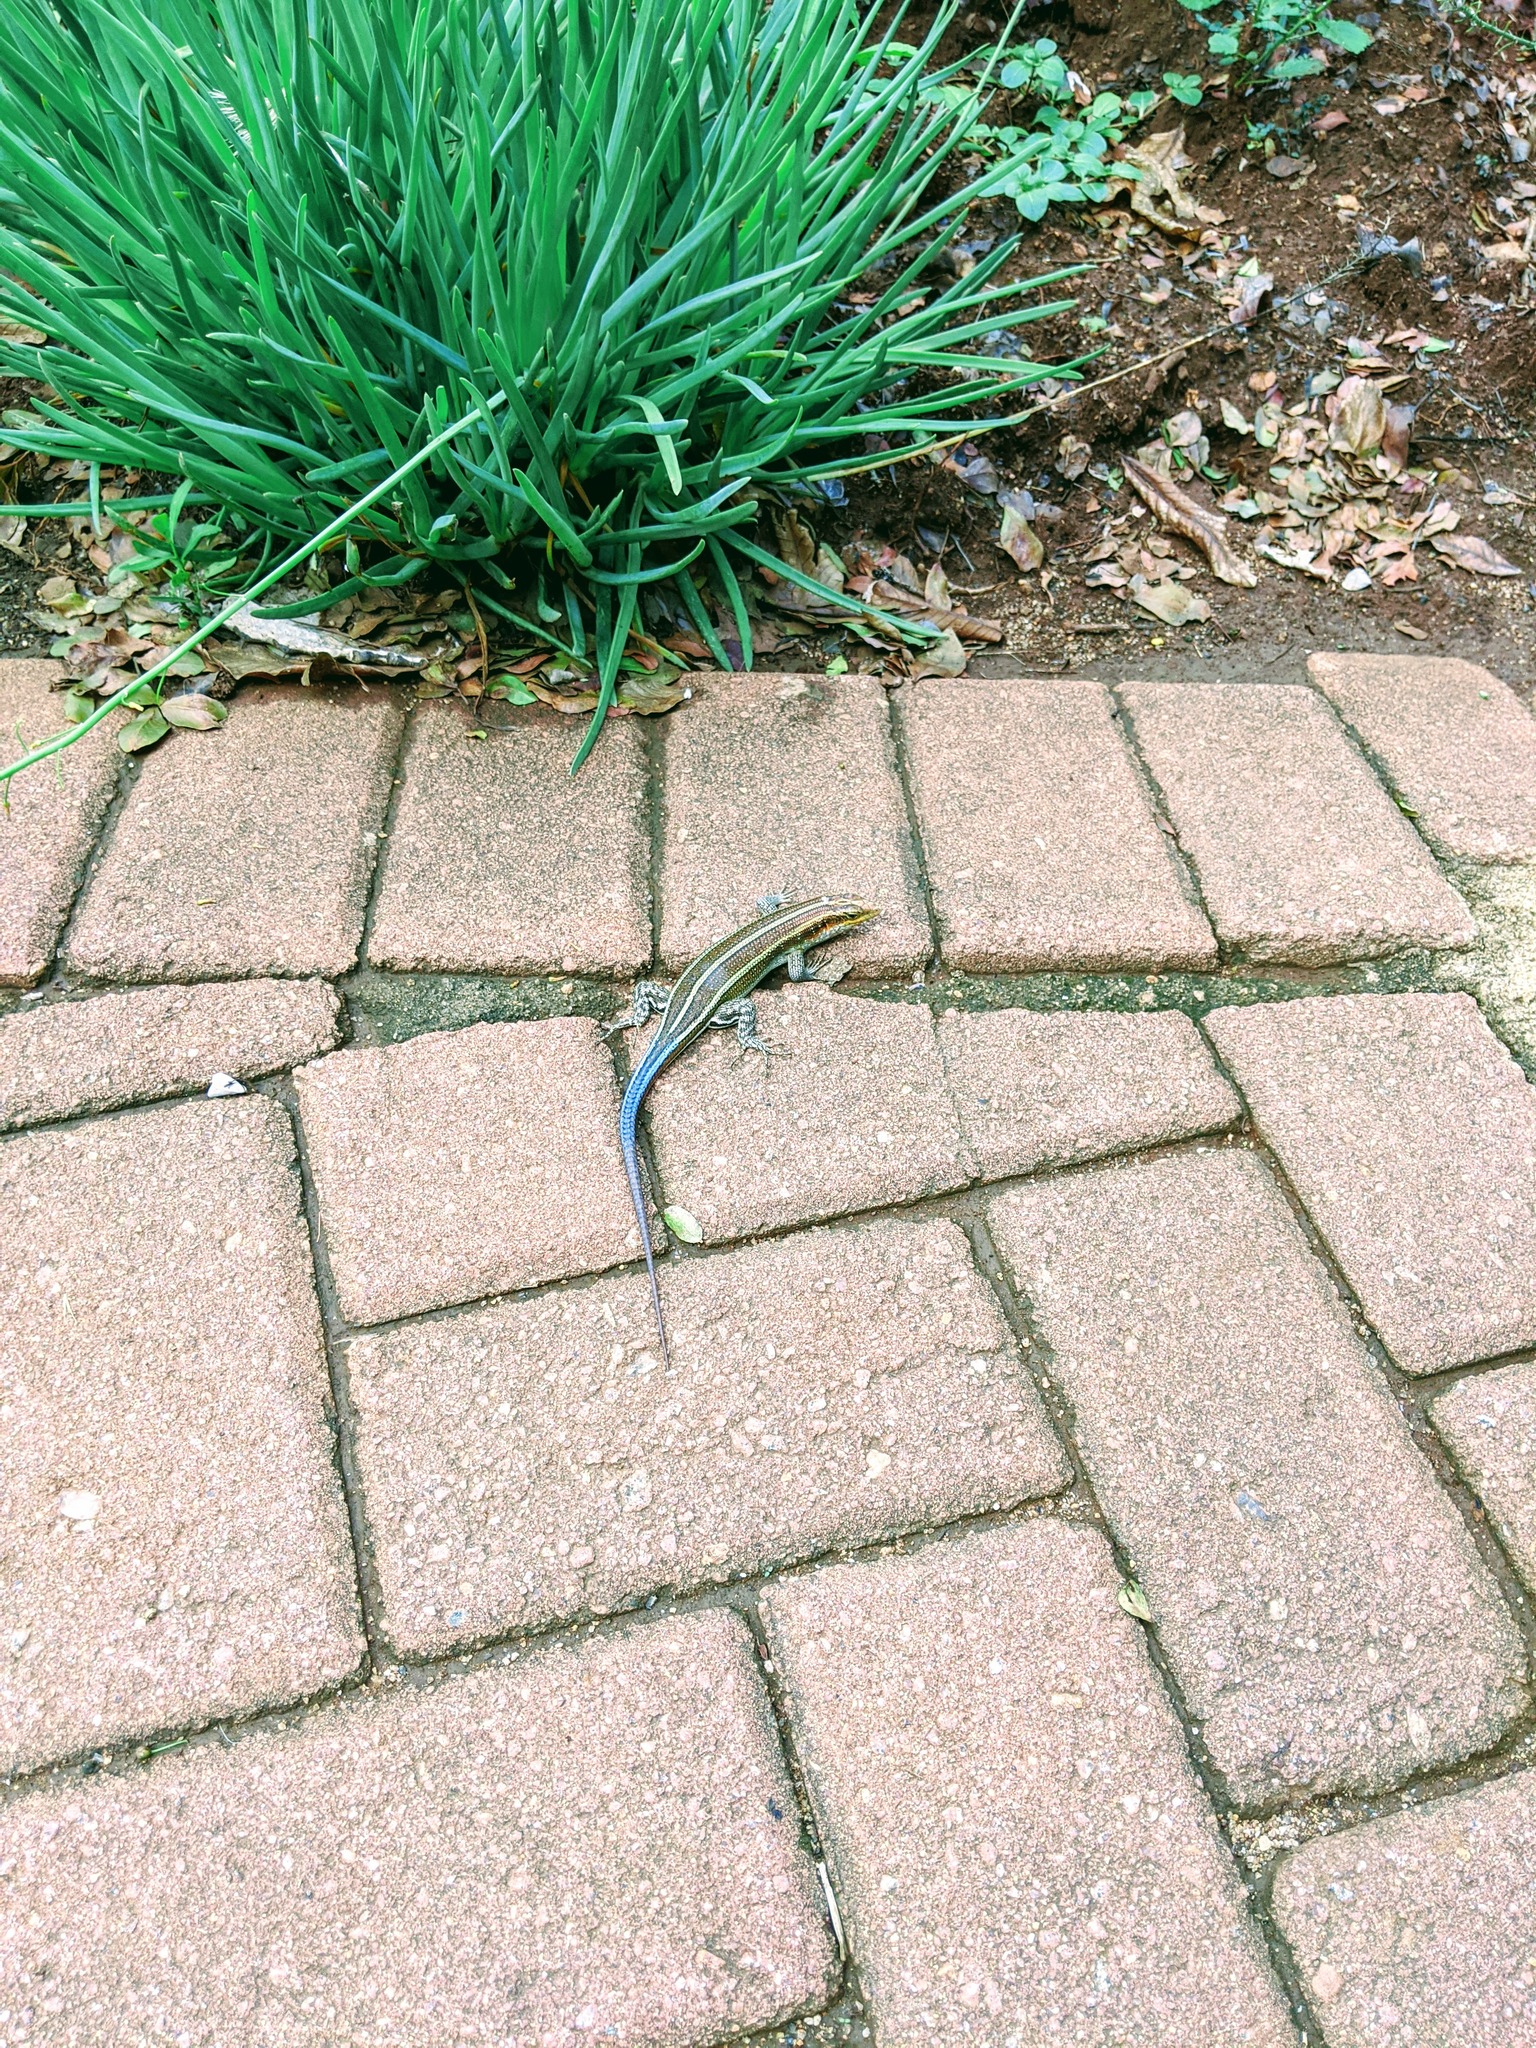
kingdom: Animalia
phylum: Chordata
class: Squamata
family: Scincidae
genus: Trachylepis
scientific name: Trachylepis margaritifera
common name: Rainbow skink
